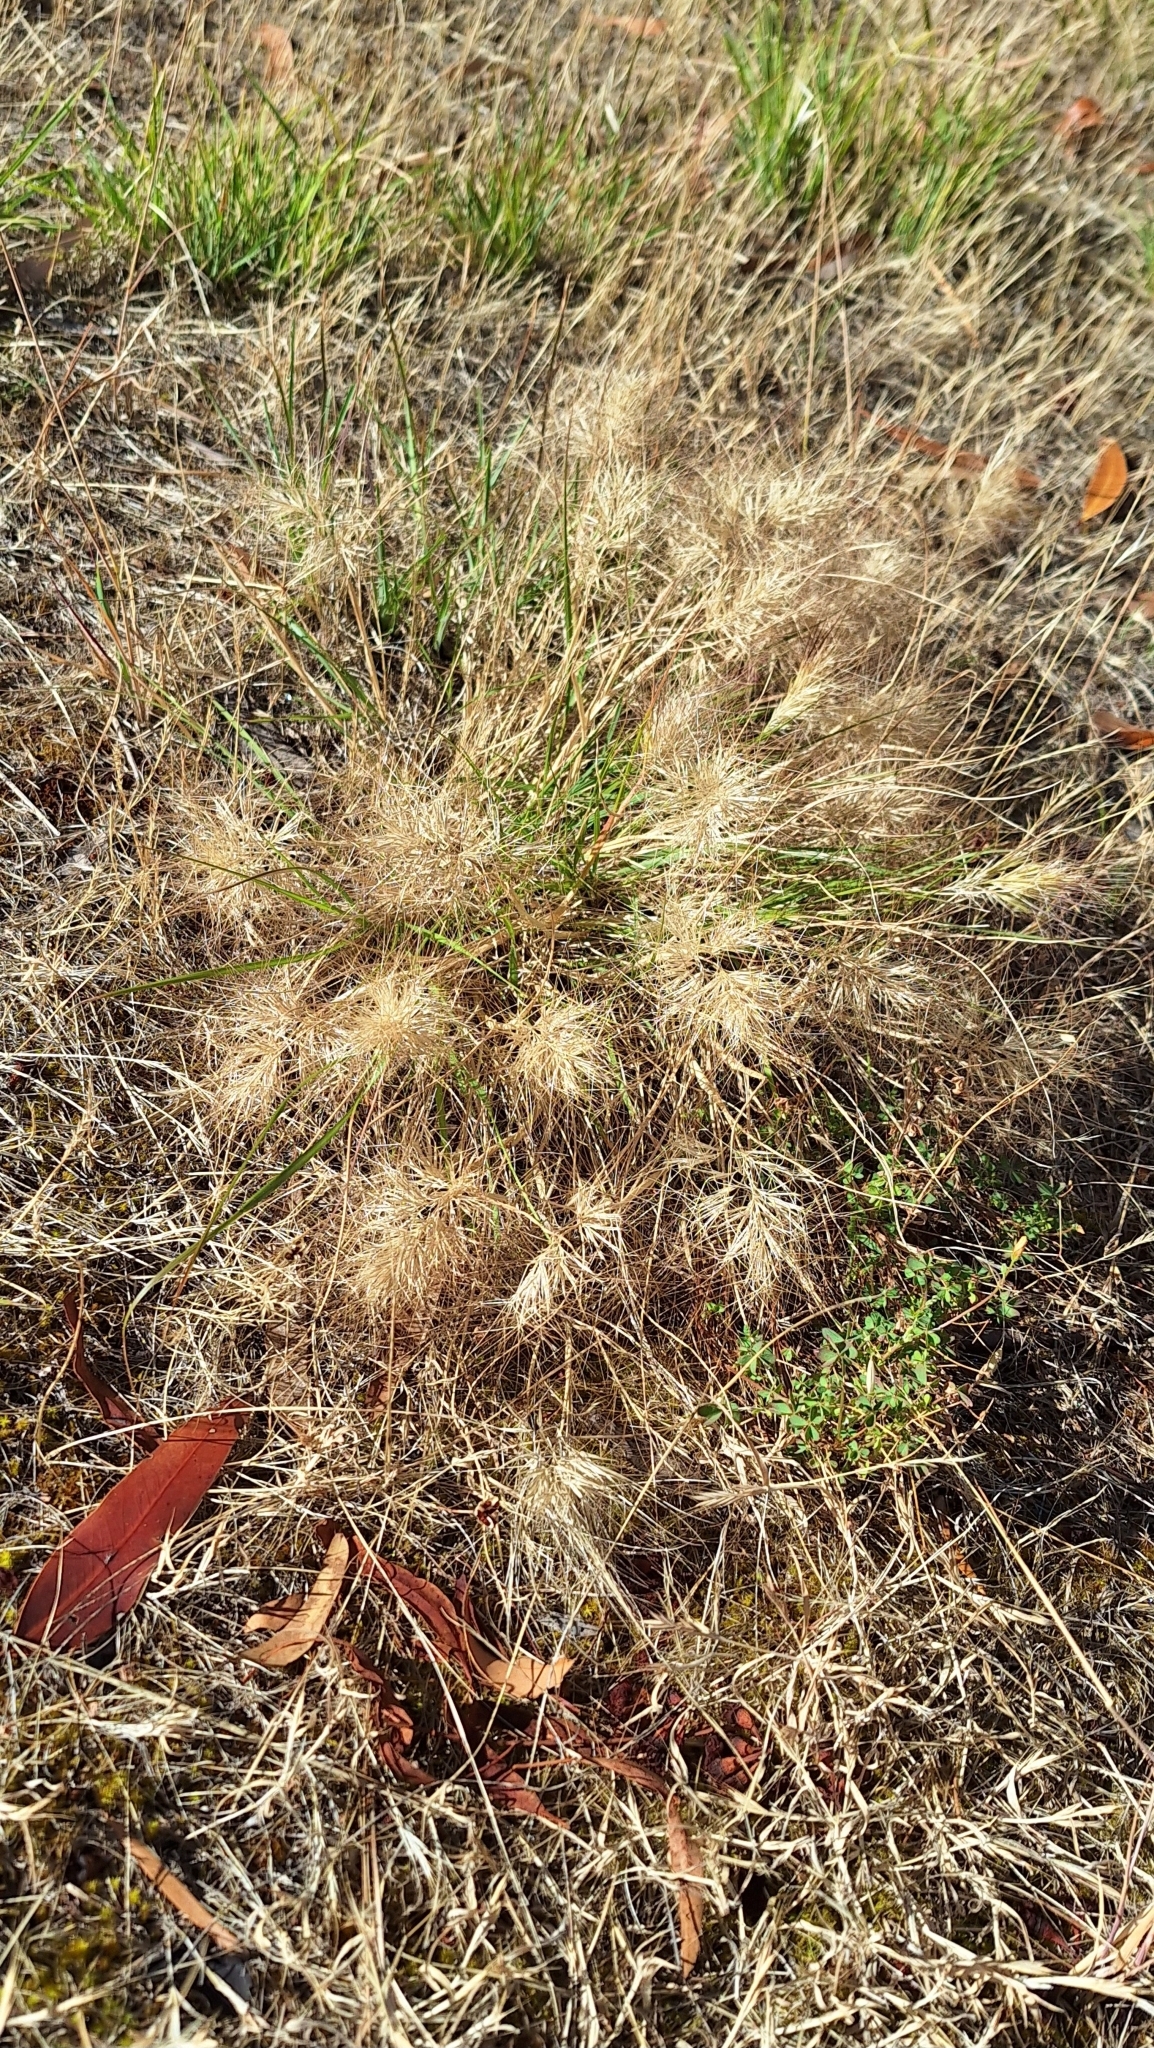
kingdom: Plantae
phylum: Tracheophyta
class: Liliopsida
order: Poales
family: Poaceae
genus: Aristida
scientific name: Aristida behriana
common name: Long-awn wire grass
